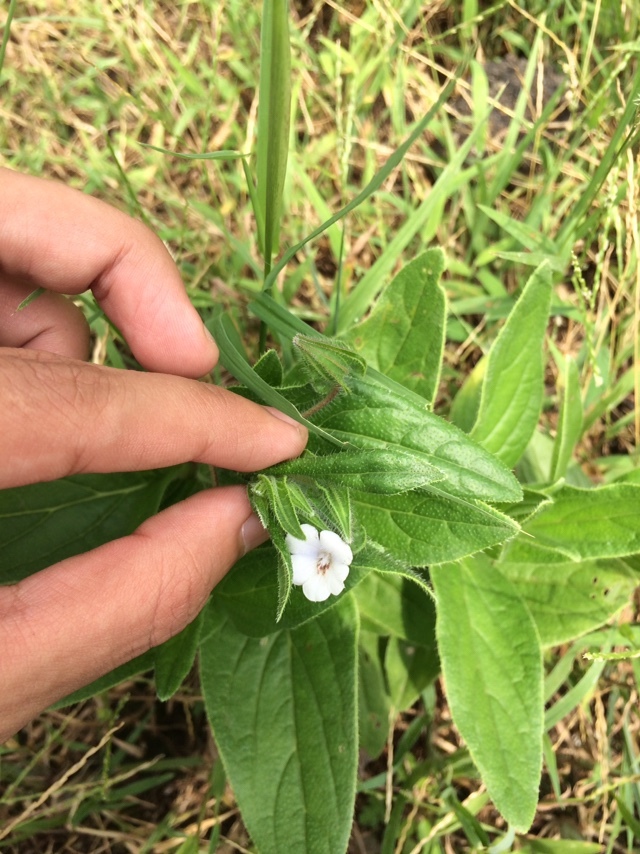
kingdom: Plantae
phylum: Tracheophyta
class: Magnoliopsida
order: Boraginales
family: Boraginaceae
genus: Trichodesma
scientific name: Trichodesma inaequale
